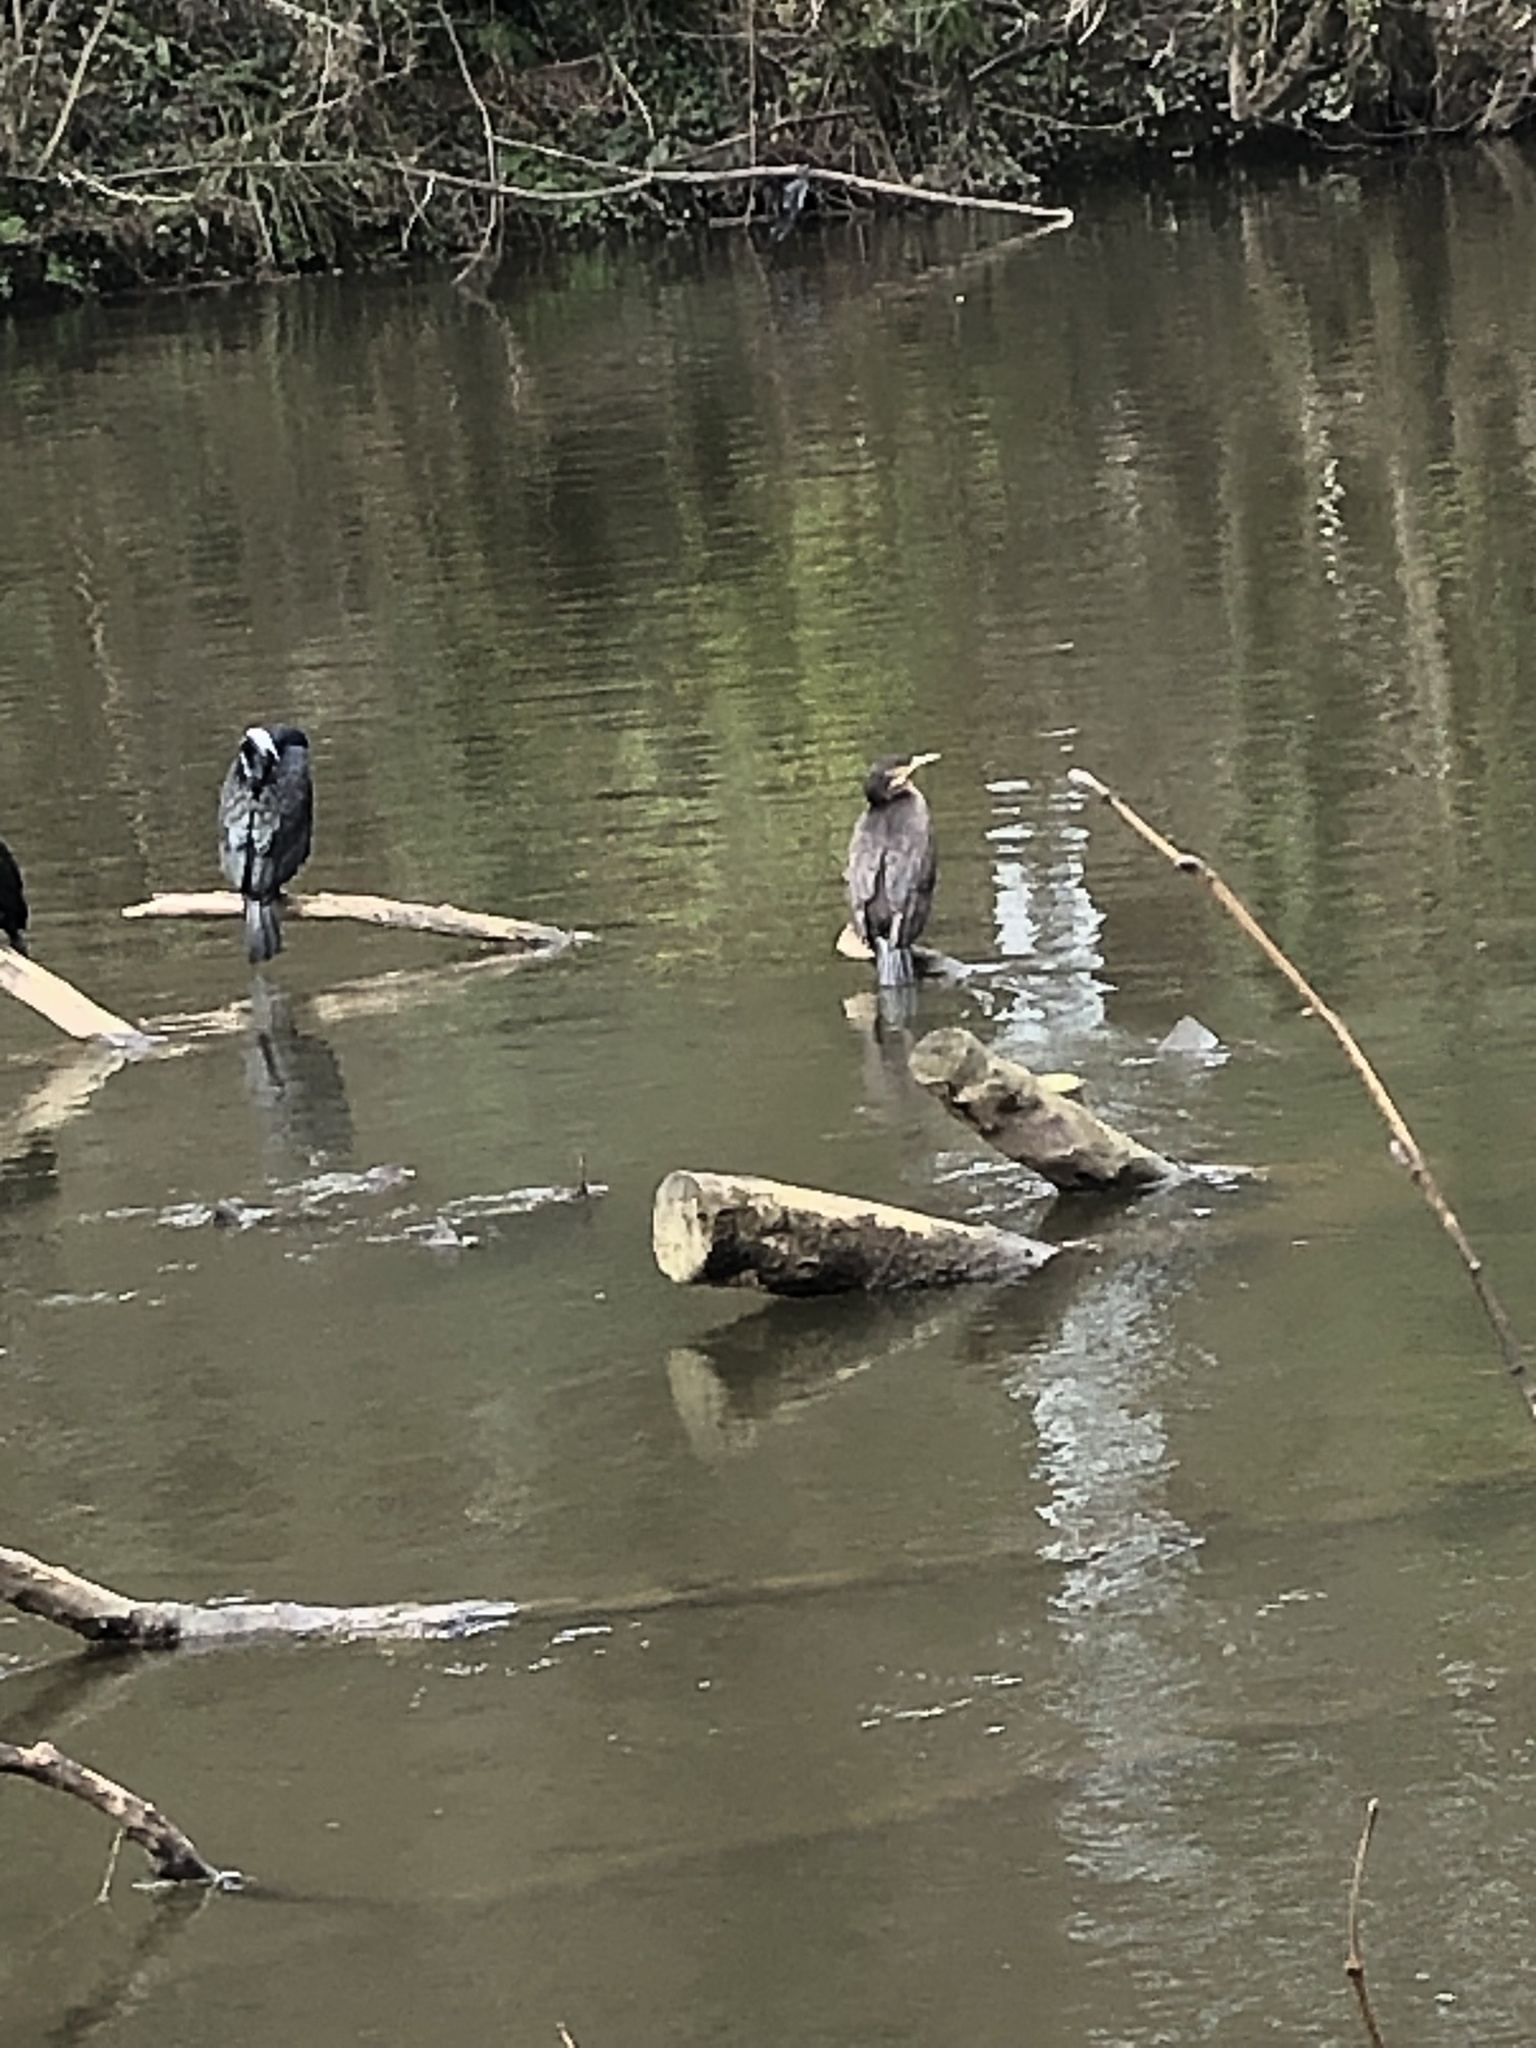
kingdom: Animalia
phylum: Chordata
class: Aves
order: Suliformes
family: Phalacrocoracidae
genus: Phalacrocorax
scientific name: Phalacrocorax carbo
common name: Great cormorant
